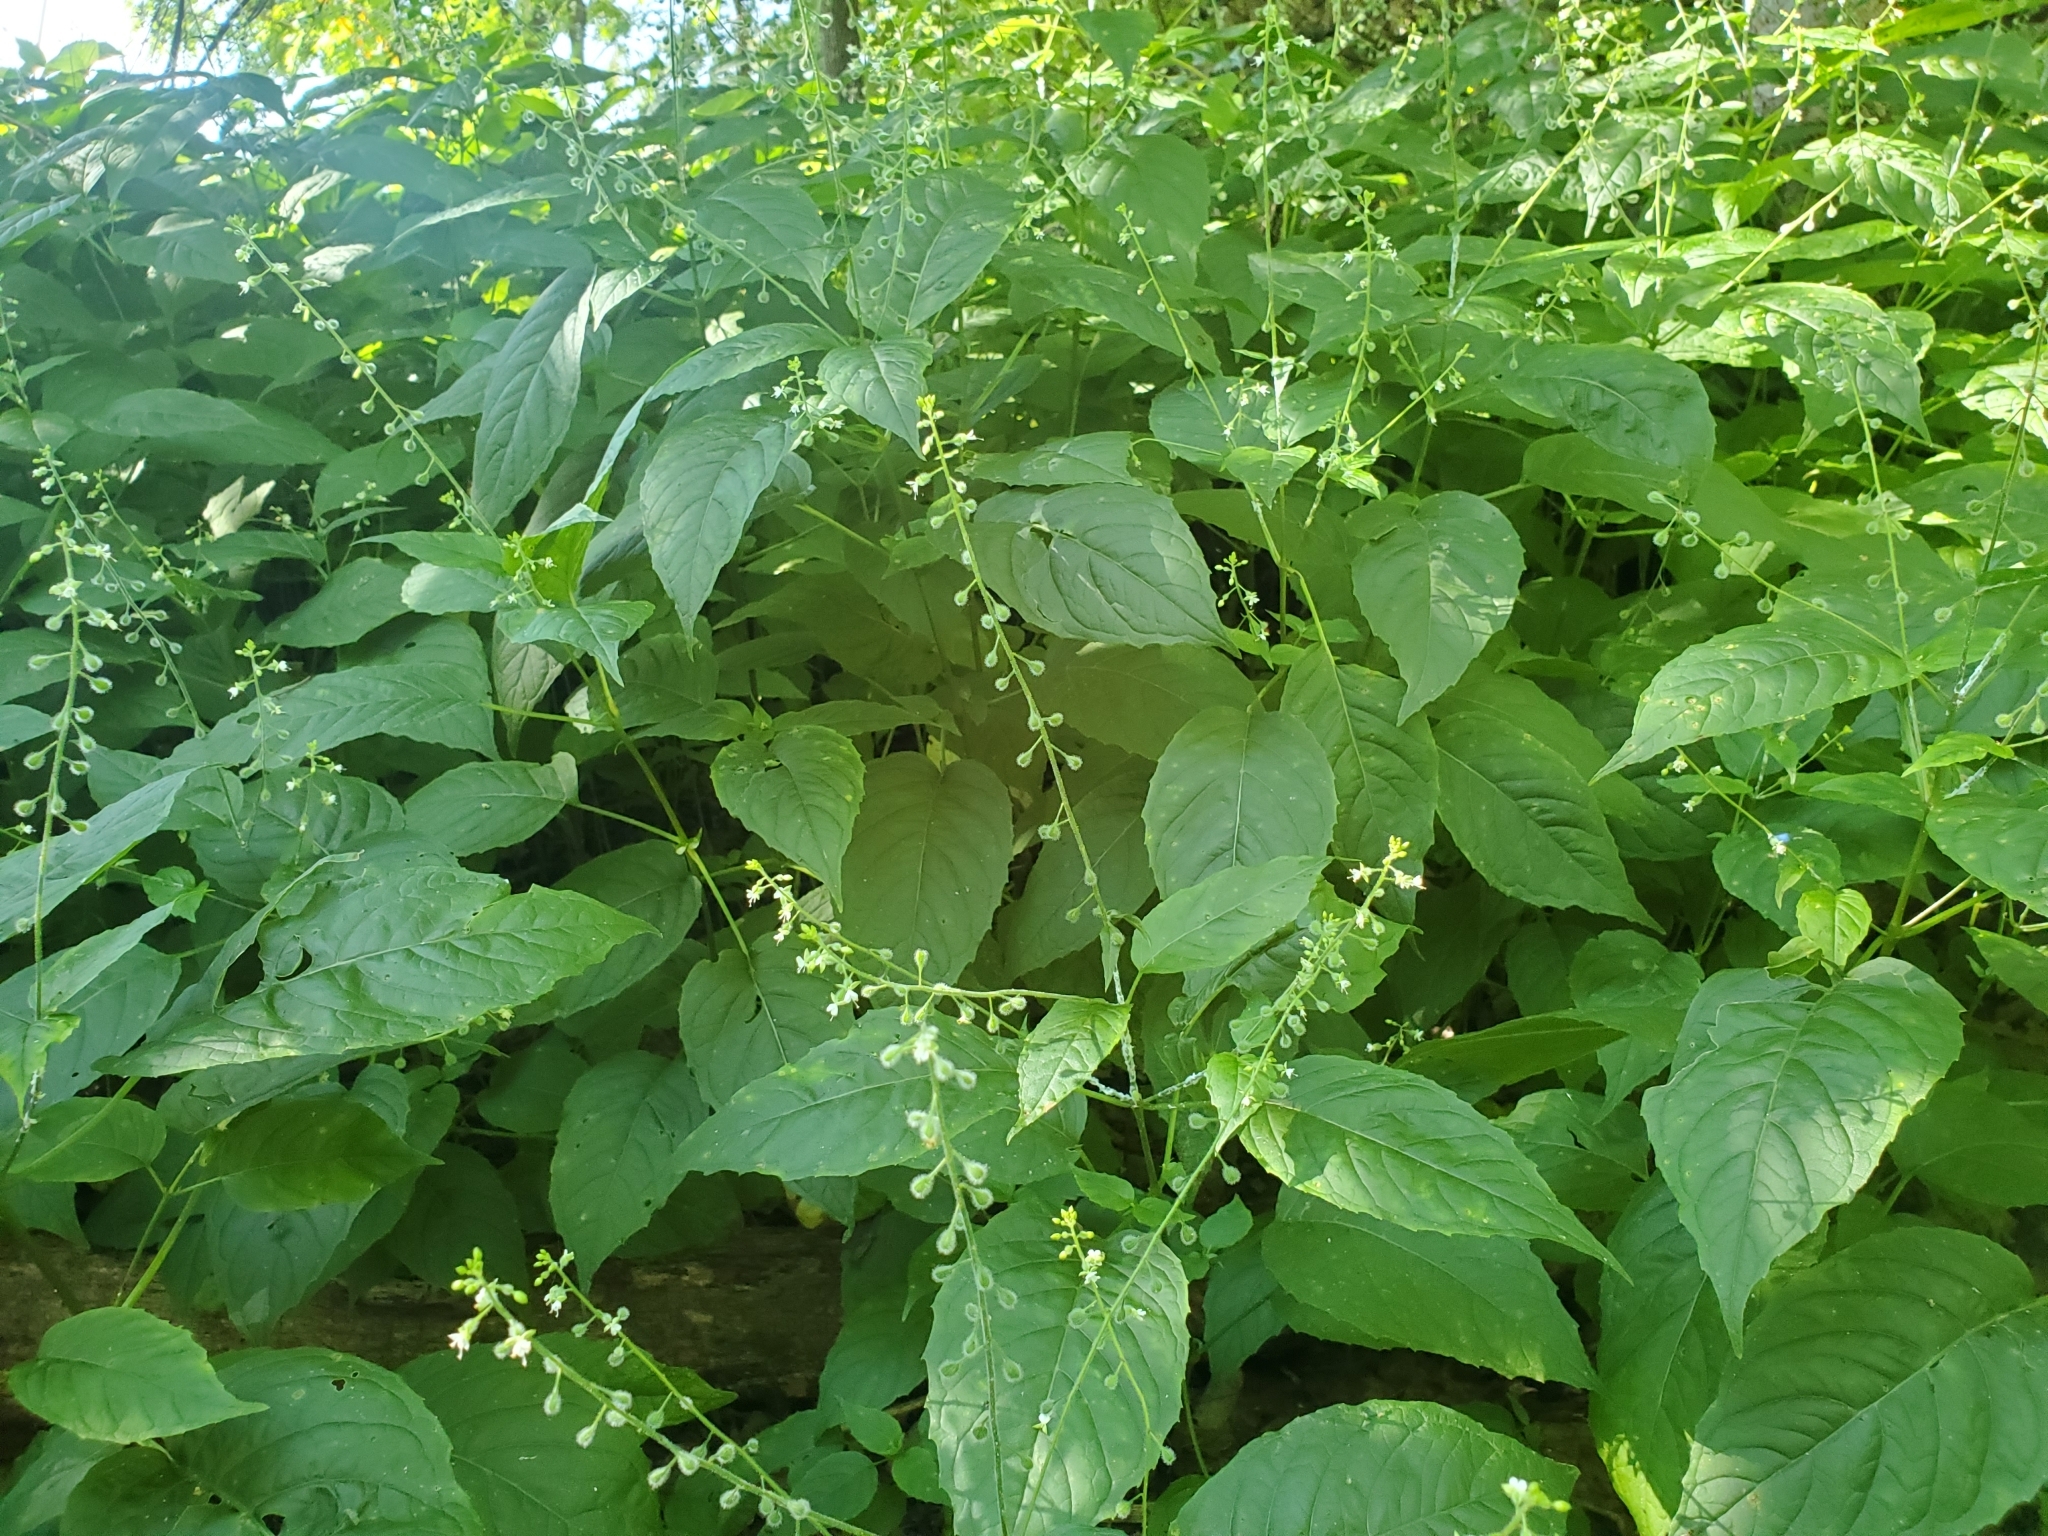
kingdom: Plantae
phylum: Tracheophyta
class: Magnoliopsida
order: Myrtales
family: Onagraceae
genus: Circaea
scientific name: Circaea canadensis
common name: Broad-leaved enchanter's nightshade
